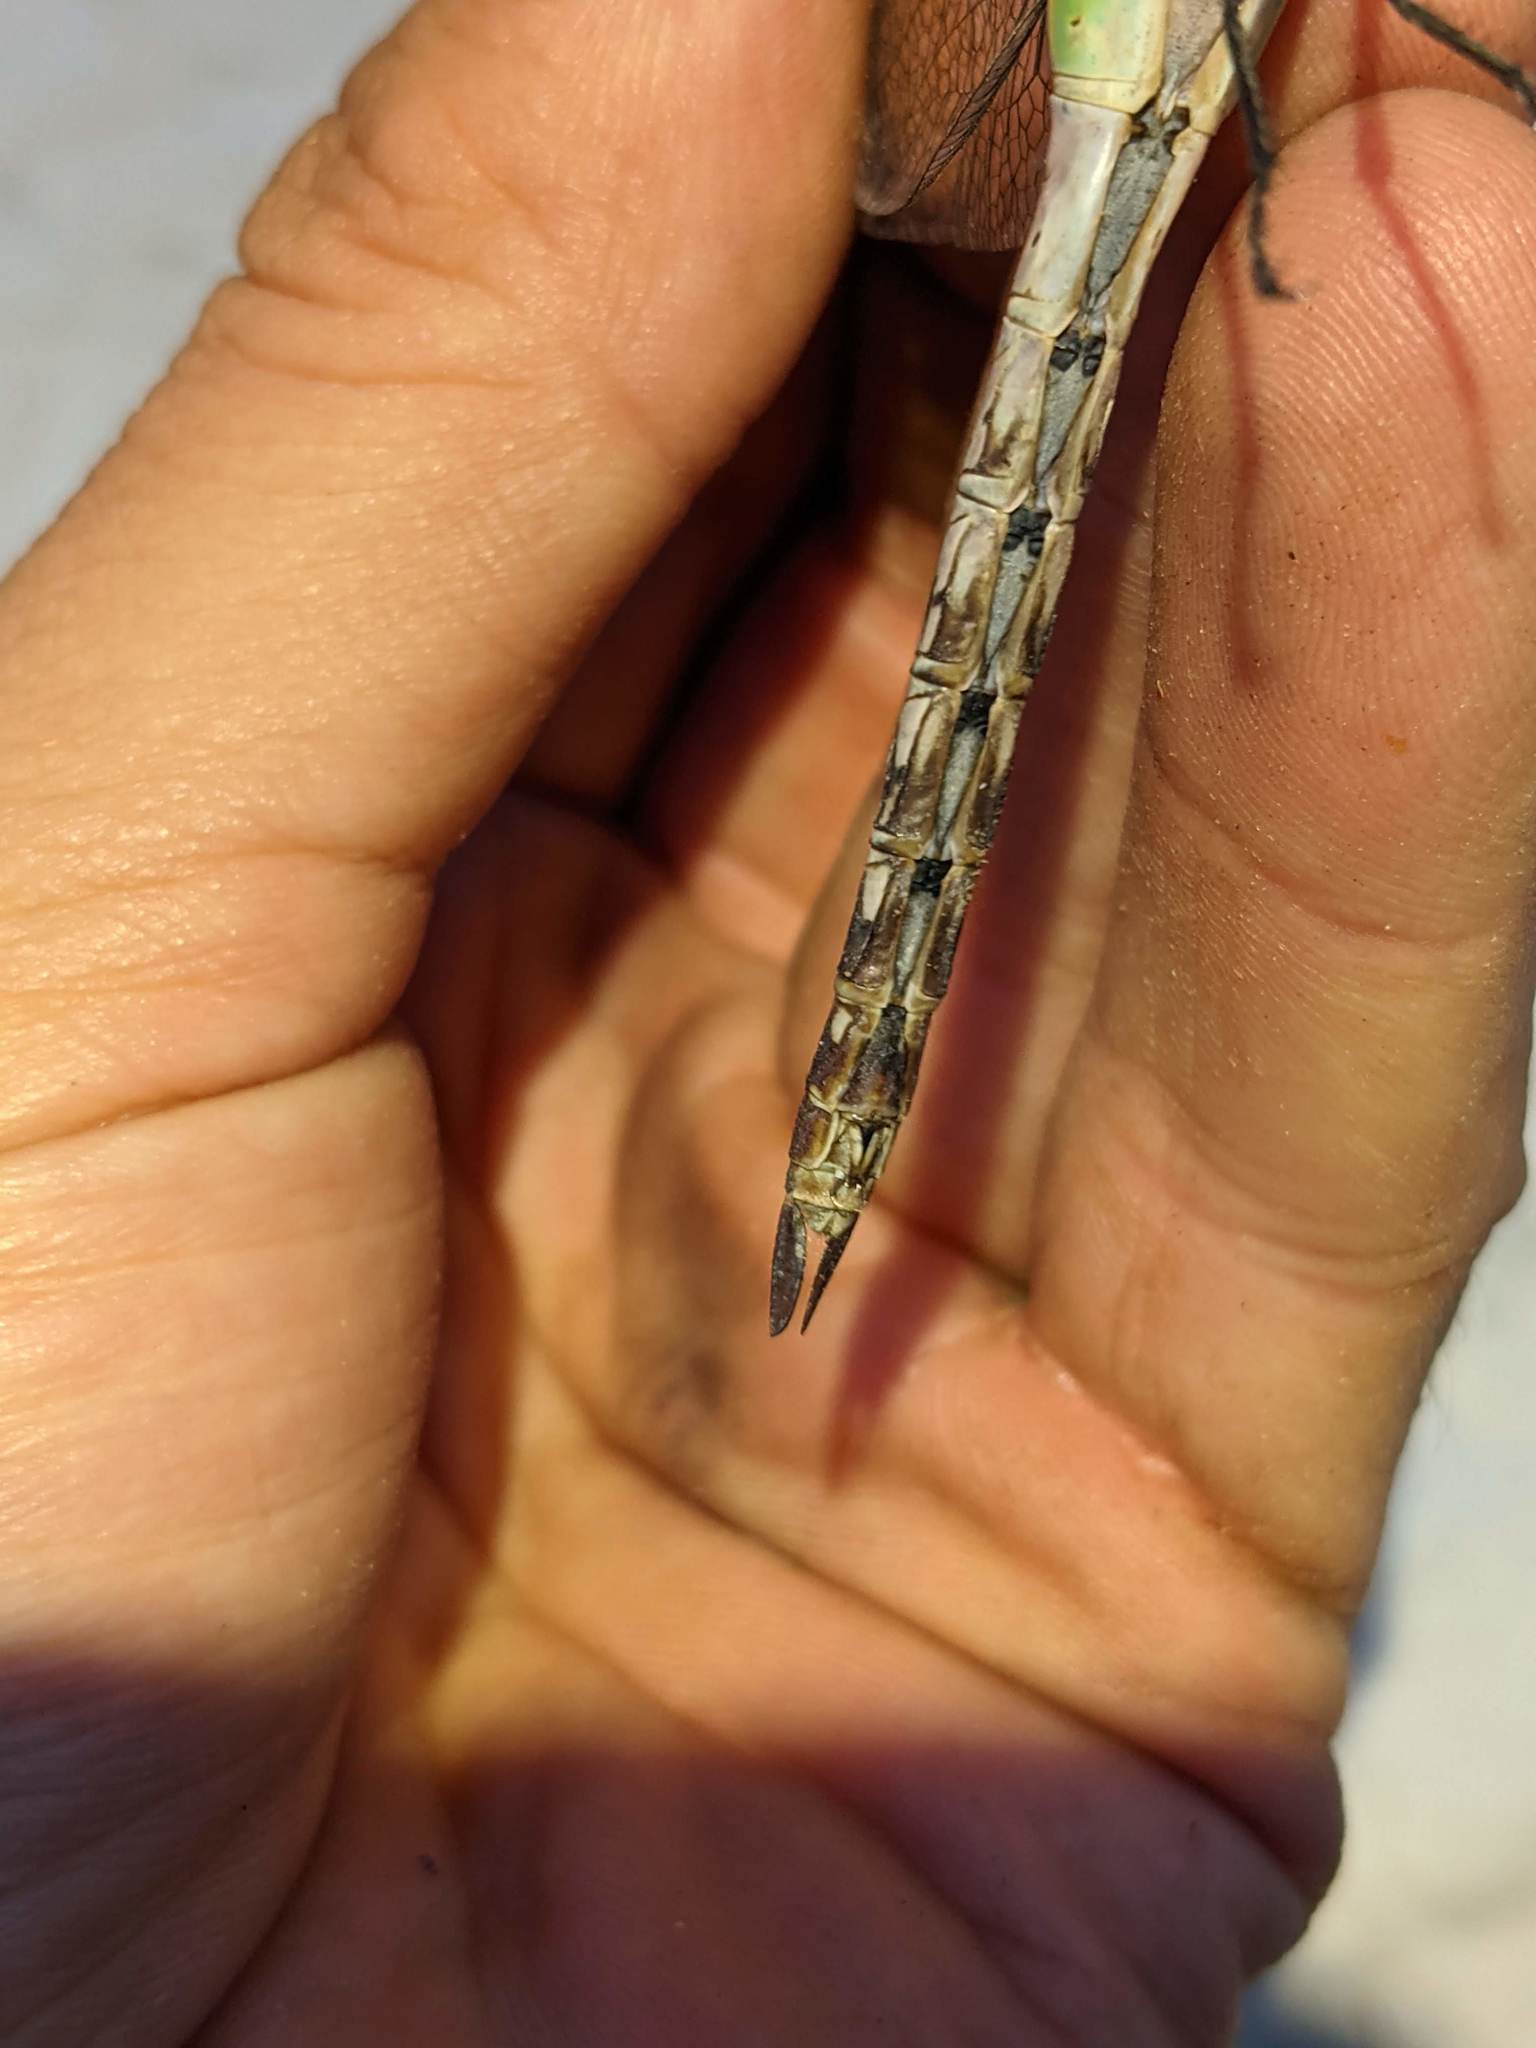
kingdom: Animalia
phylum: Arthropoda
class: Insecta
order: Odonata
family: Aeshnidae
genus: Anax
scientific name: Anax junius
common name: Common green darner
